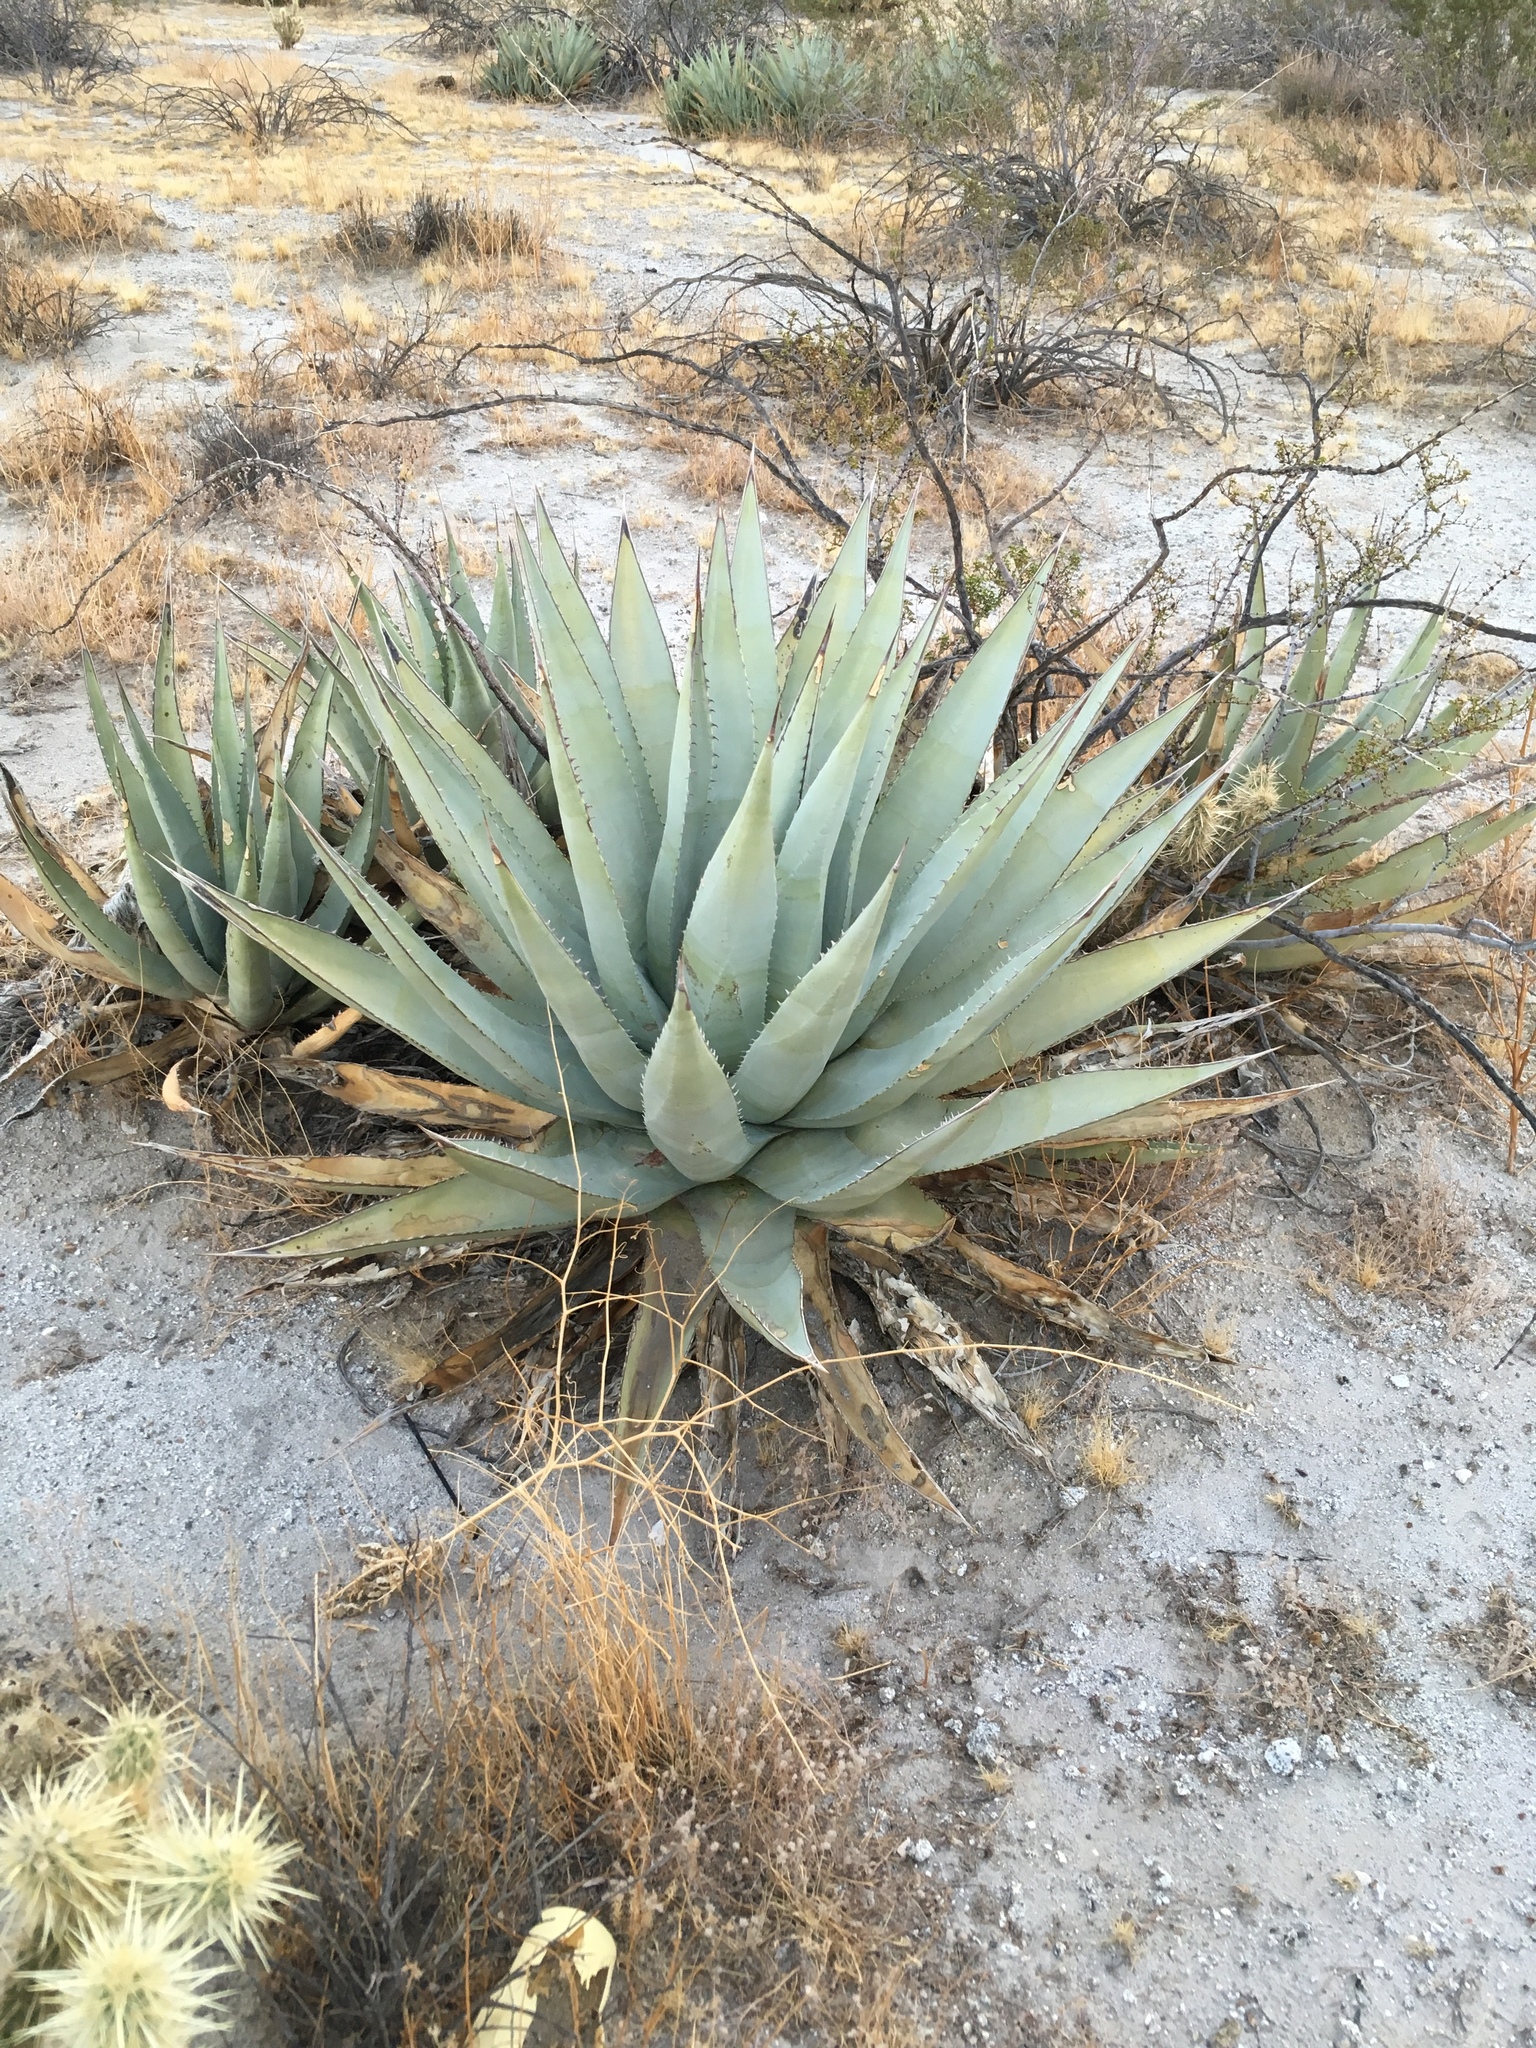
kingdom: Plantae
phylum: Tracheophyta
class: Liliopsida
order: Asparagales
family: Asparagaceae
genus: Agave
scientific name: Agave deserti
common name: Desert agave
